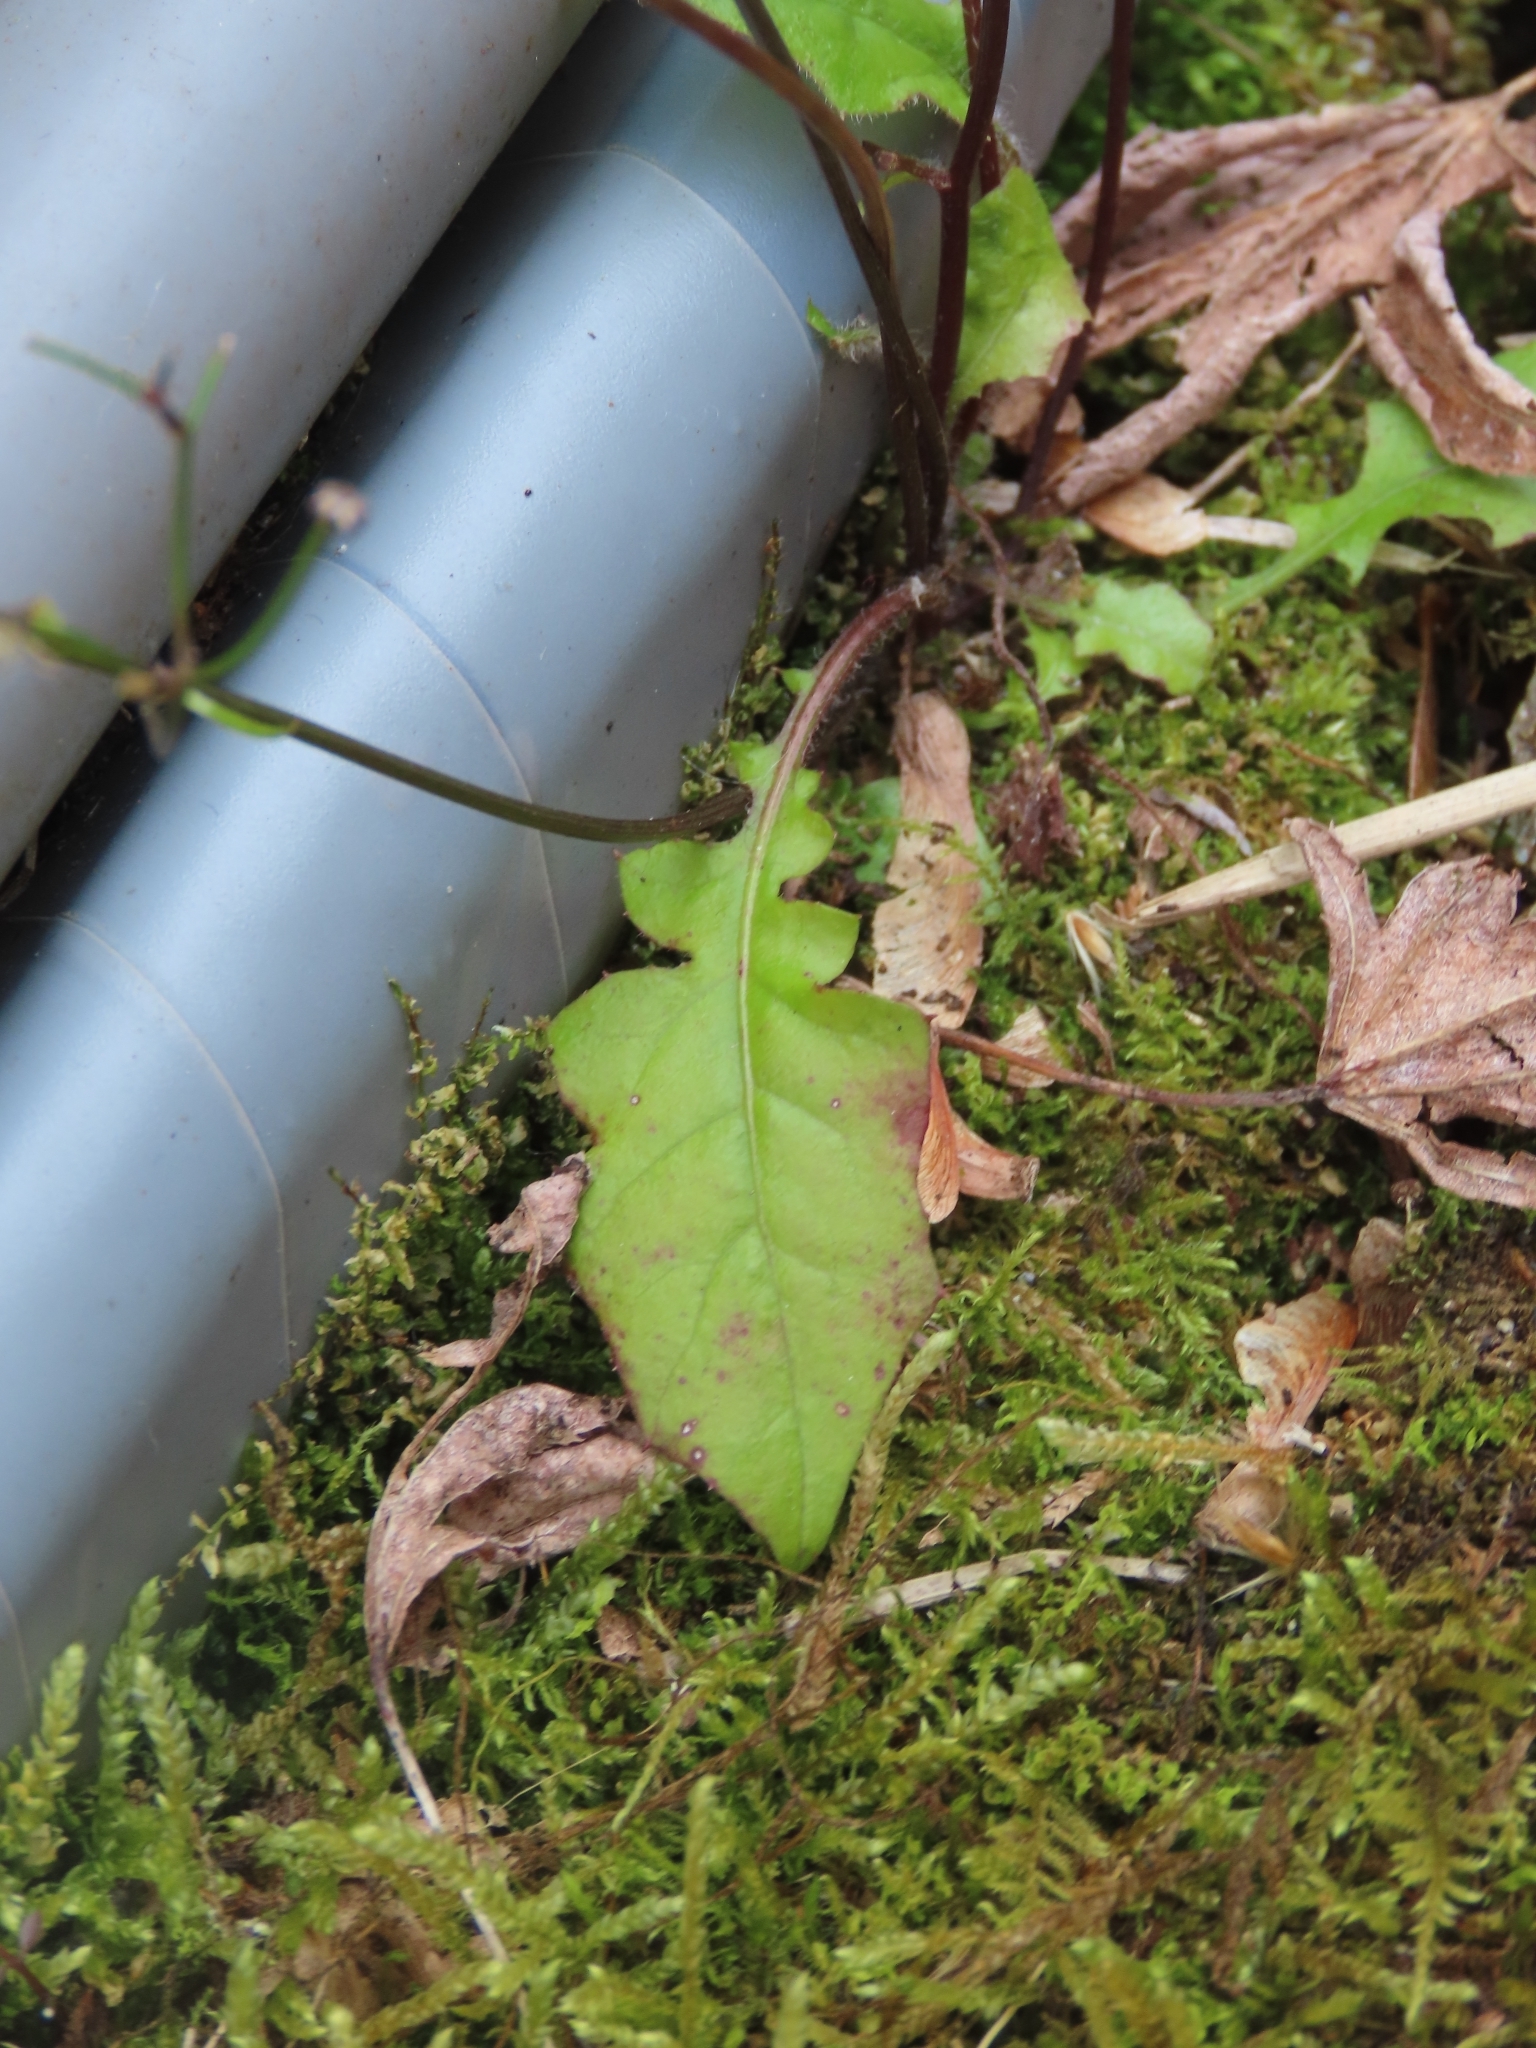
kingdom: Plantae
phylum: Tracheophyta
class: Magnoliopsida
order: Asterales
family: Asteraceae
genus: Youngia
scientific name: Youngia japonica
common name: Oriental false hawksbeard
